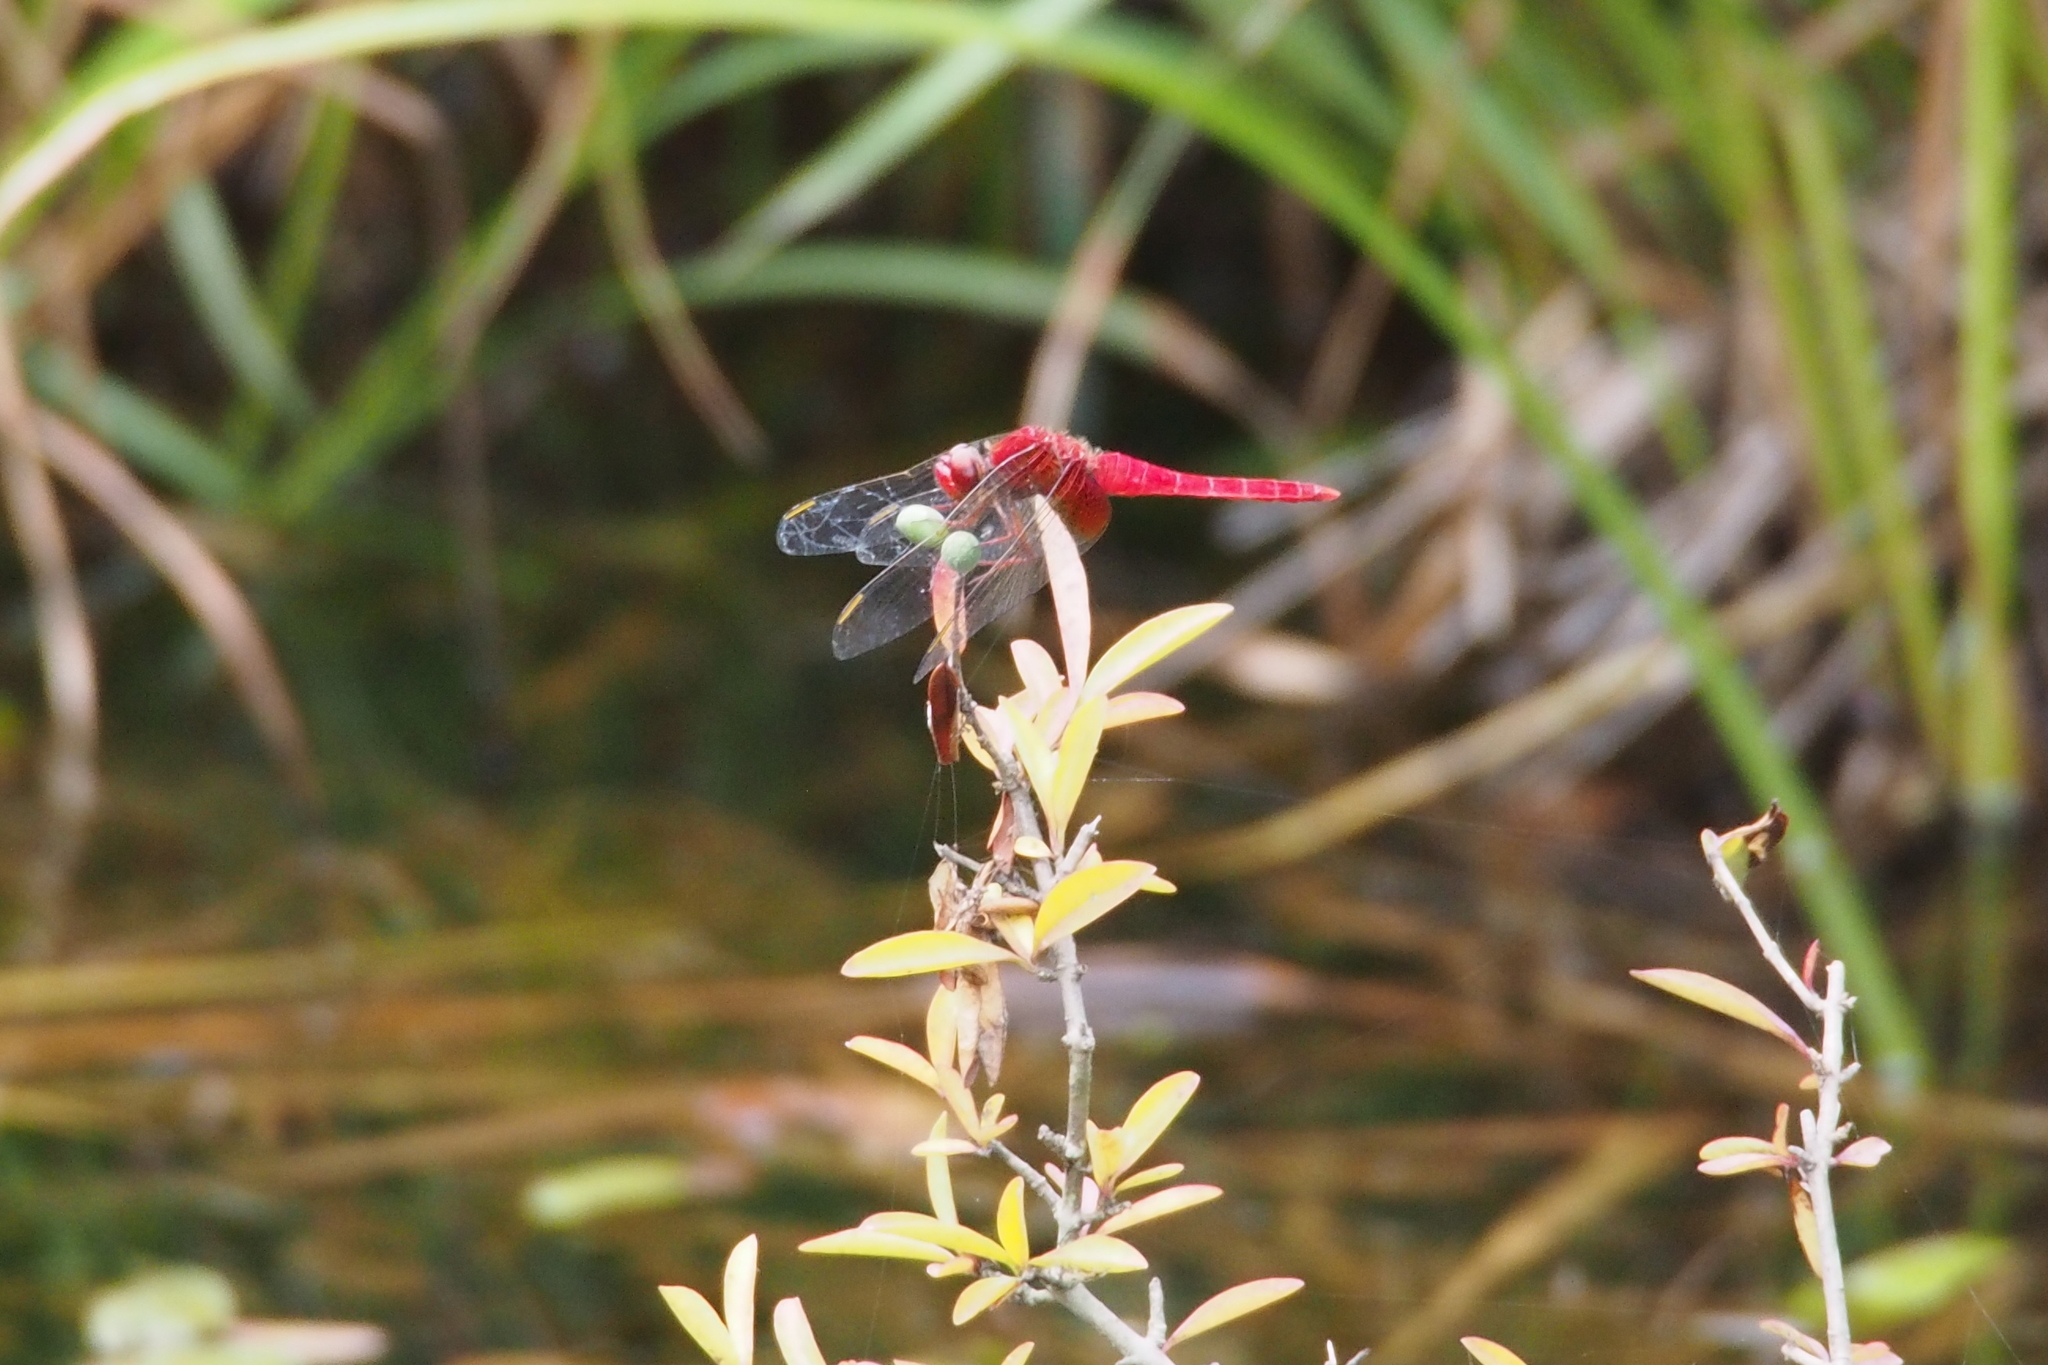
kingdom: Animalia
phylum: Arthropoda
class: Insecta
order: Odonata
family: Libellulidae
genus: Crocothemis
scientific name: Crocothemis servilia
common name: Scarlet skimmer
